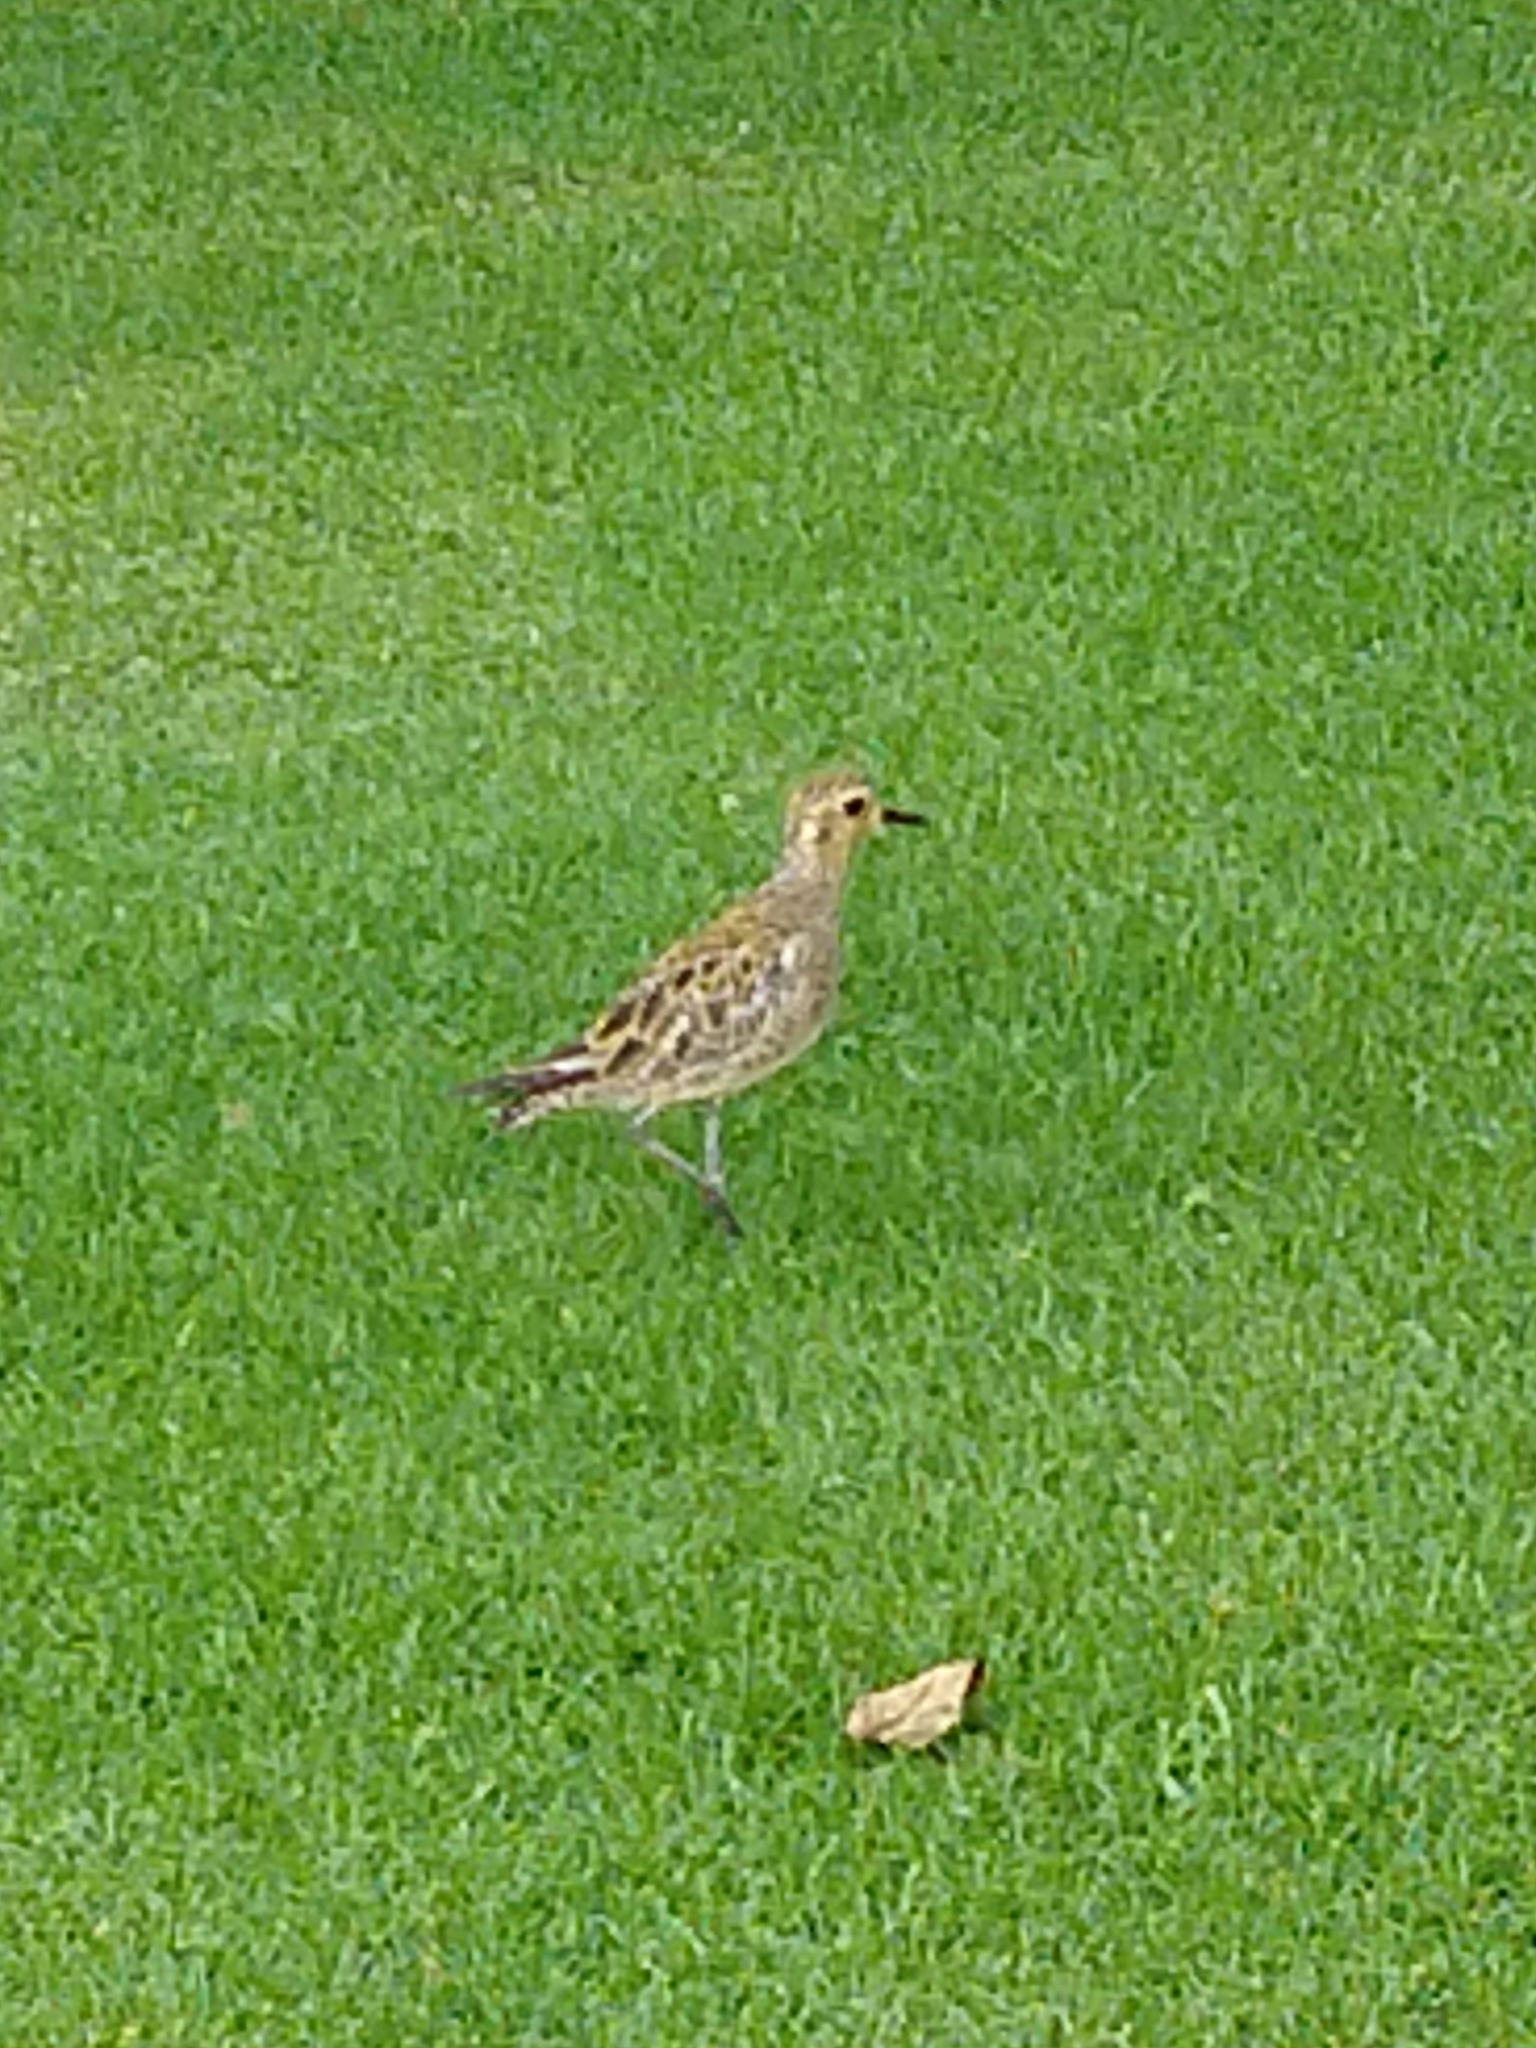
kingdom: Animalia
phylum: Chordata
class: Aves
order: Charadriiformes
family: Charadriidae
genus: Pluvialis
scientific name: Pluvialis fulva
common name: Pacific golden plover
